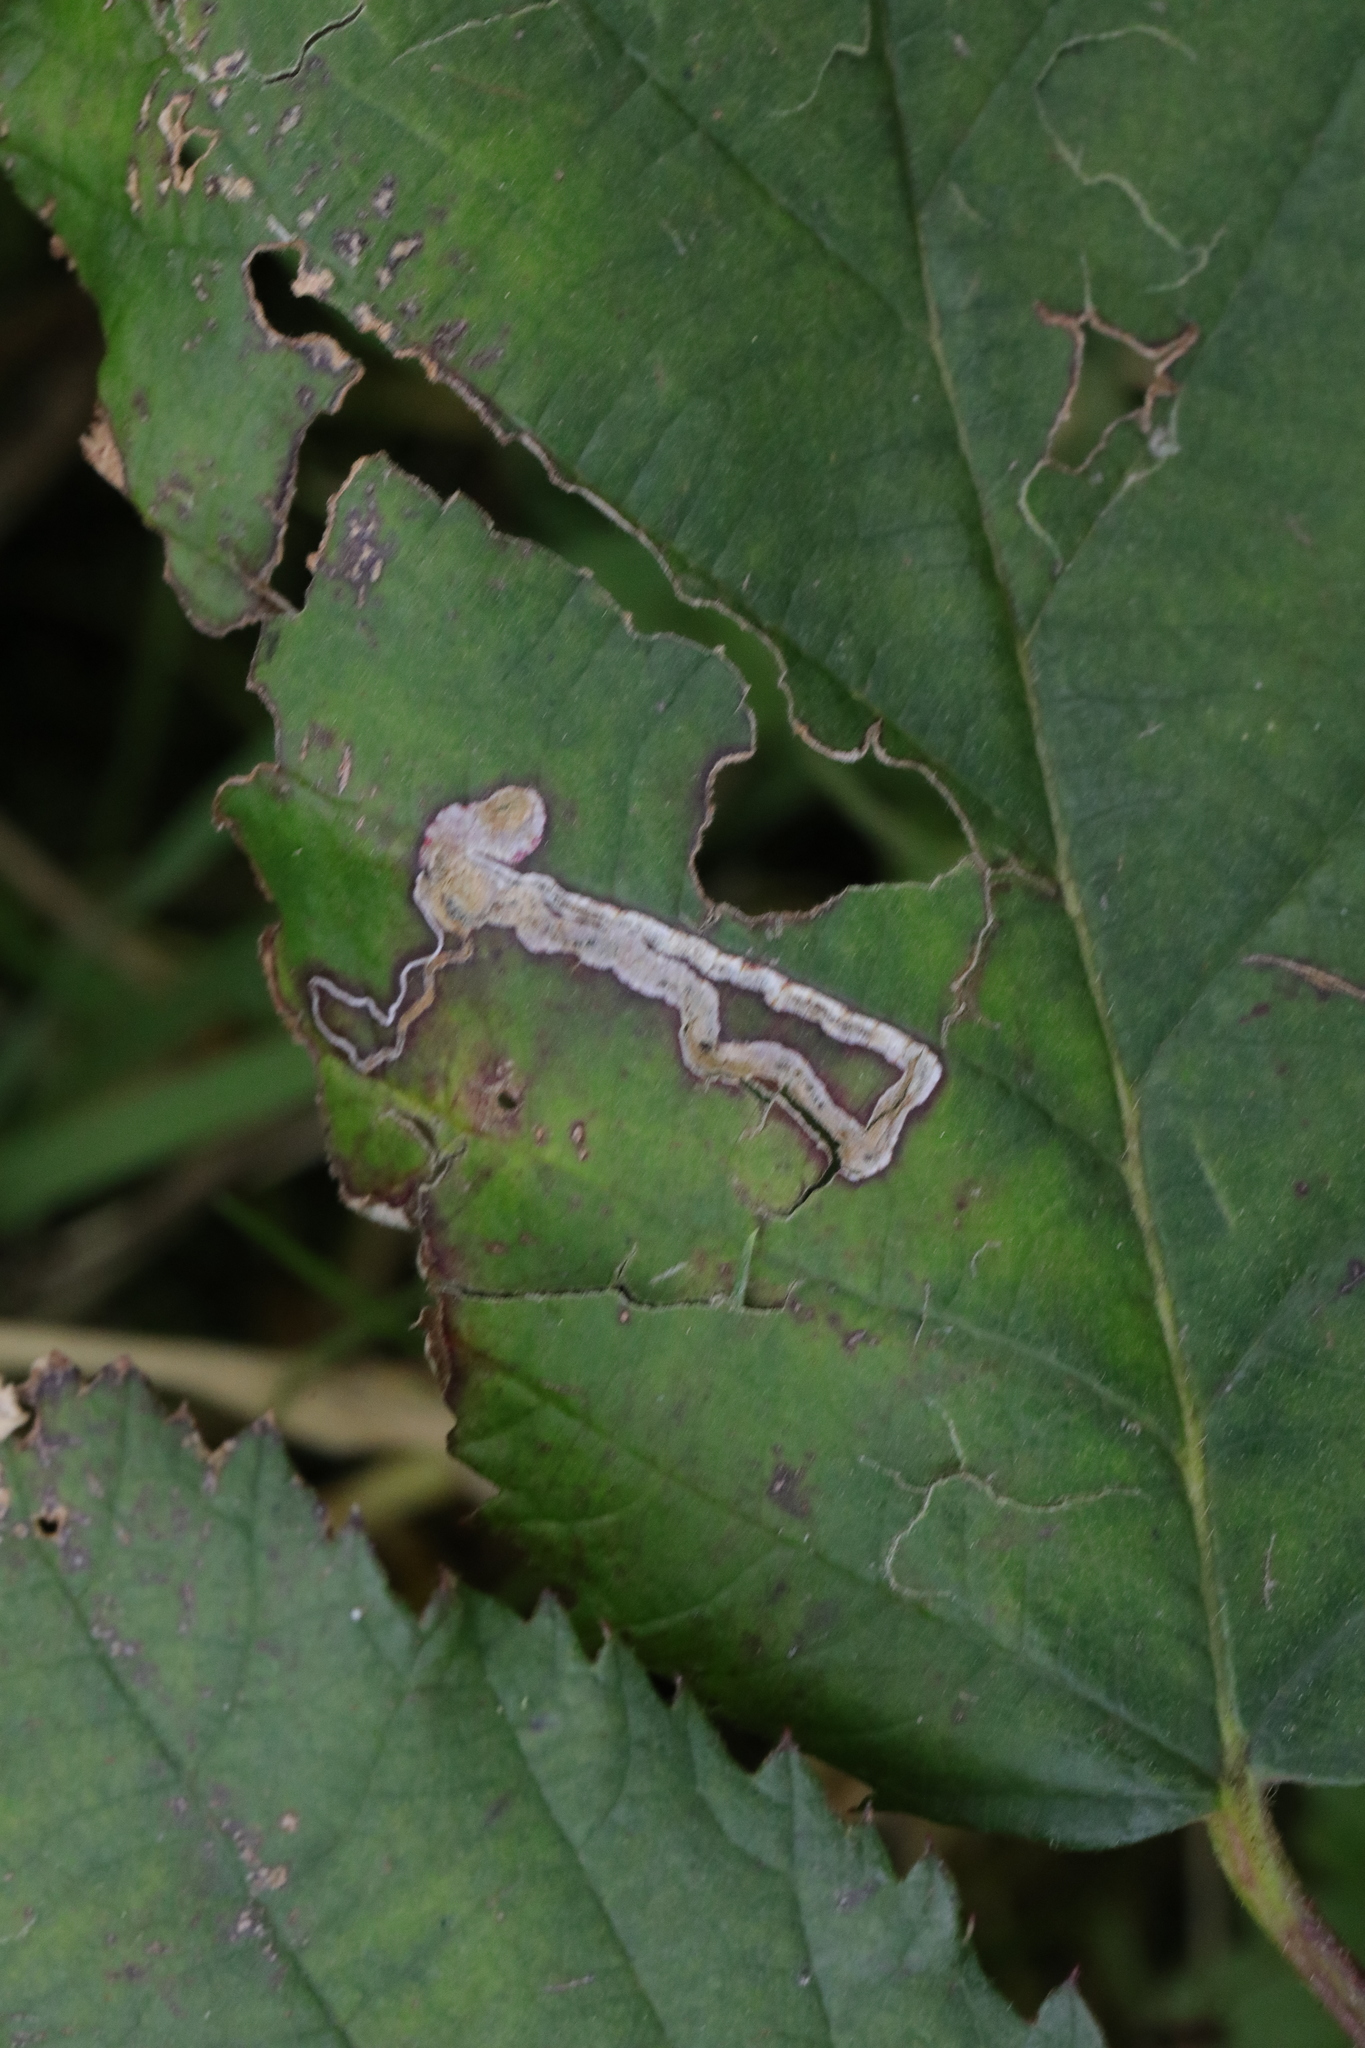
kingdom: Animalia
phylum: Arthropoda
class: Insecta
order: Lepidoptera
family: Nepticulidae
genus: Stigmella
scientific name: Stigmella aurella
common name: Golden pigmy
